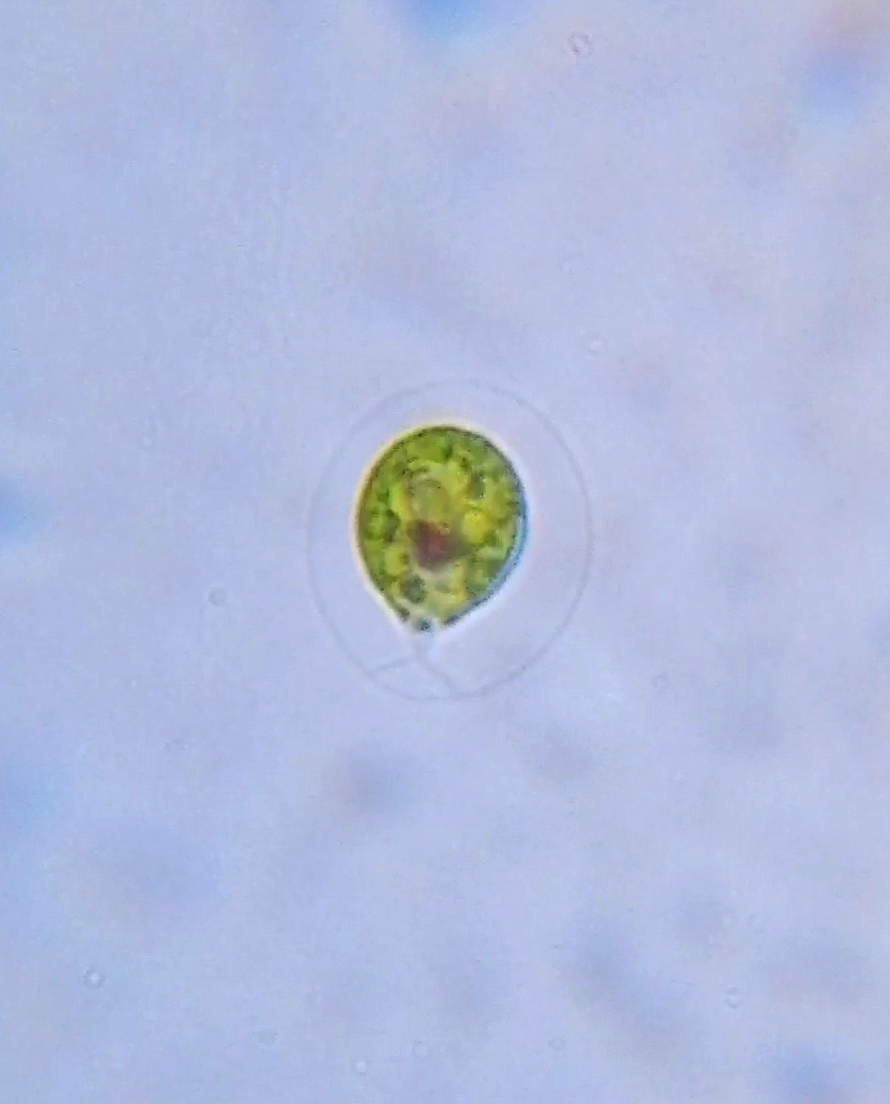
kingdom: Plantae
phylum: Chlorophyta
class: Chlorophyceae
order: Volvocales
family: Haematococcaceae
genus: Haematococcus
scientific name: Haematococcus lacustris
